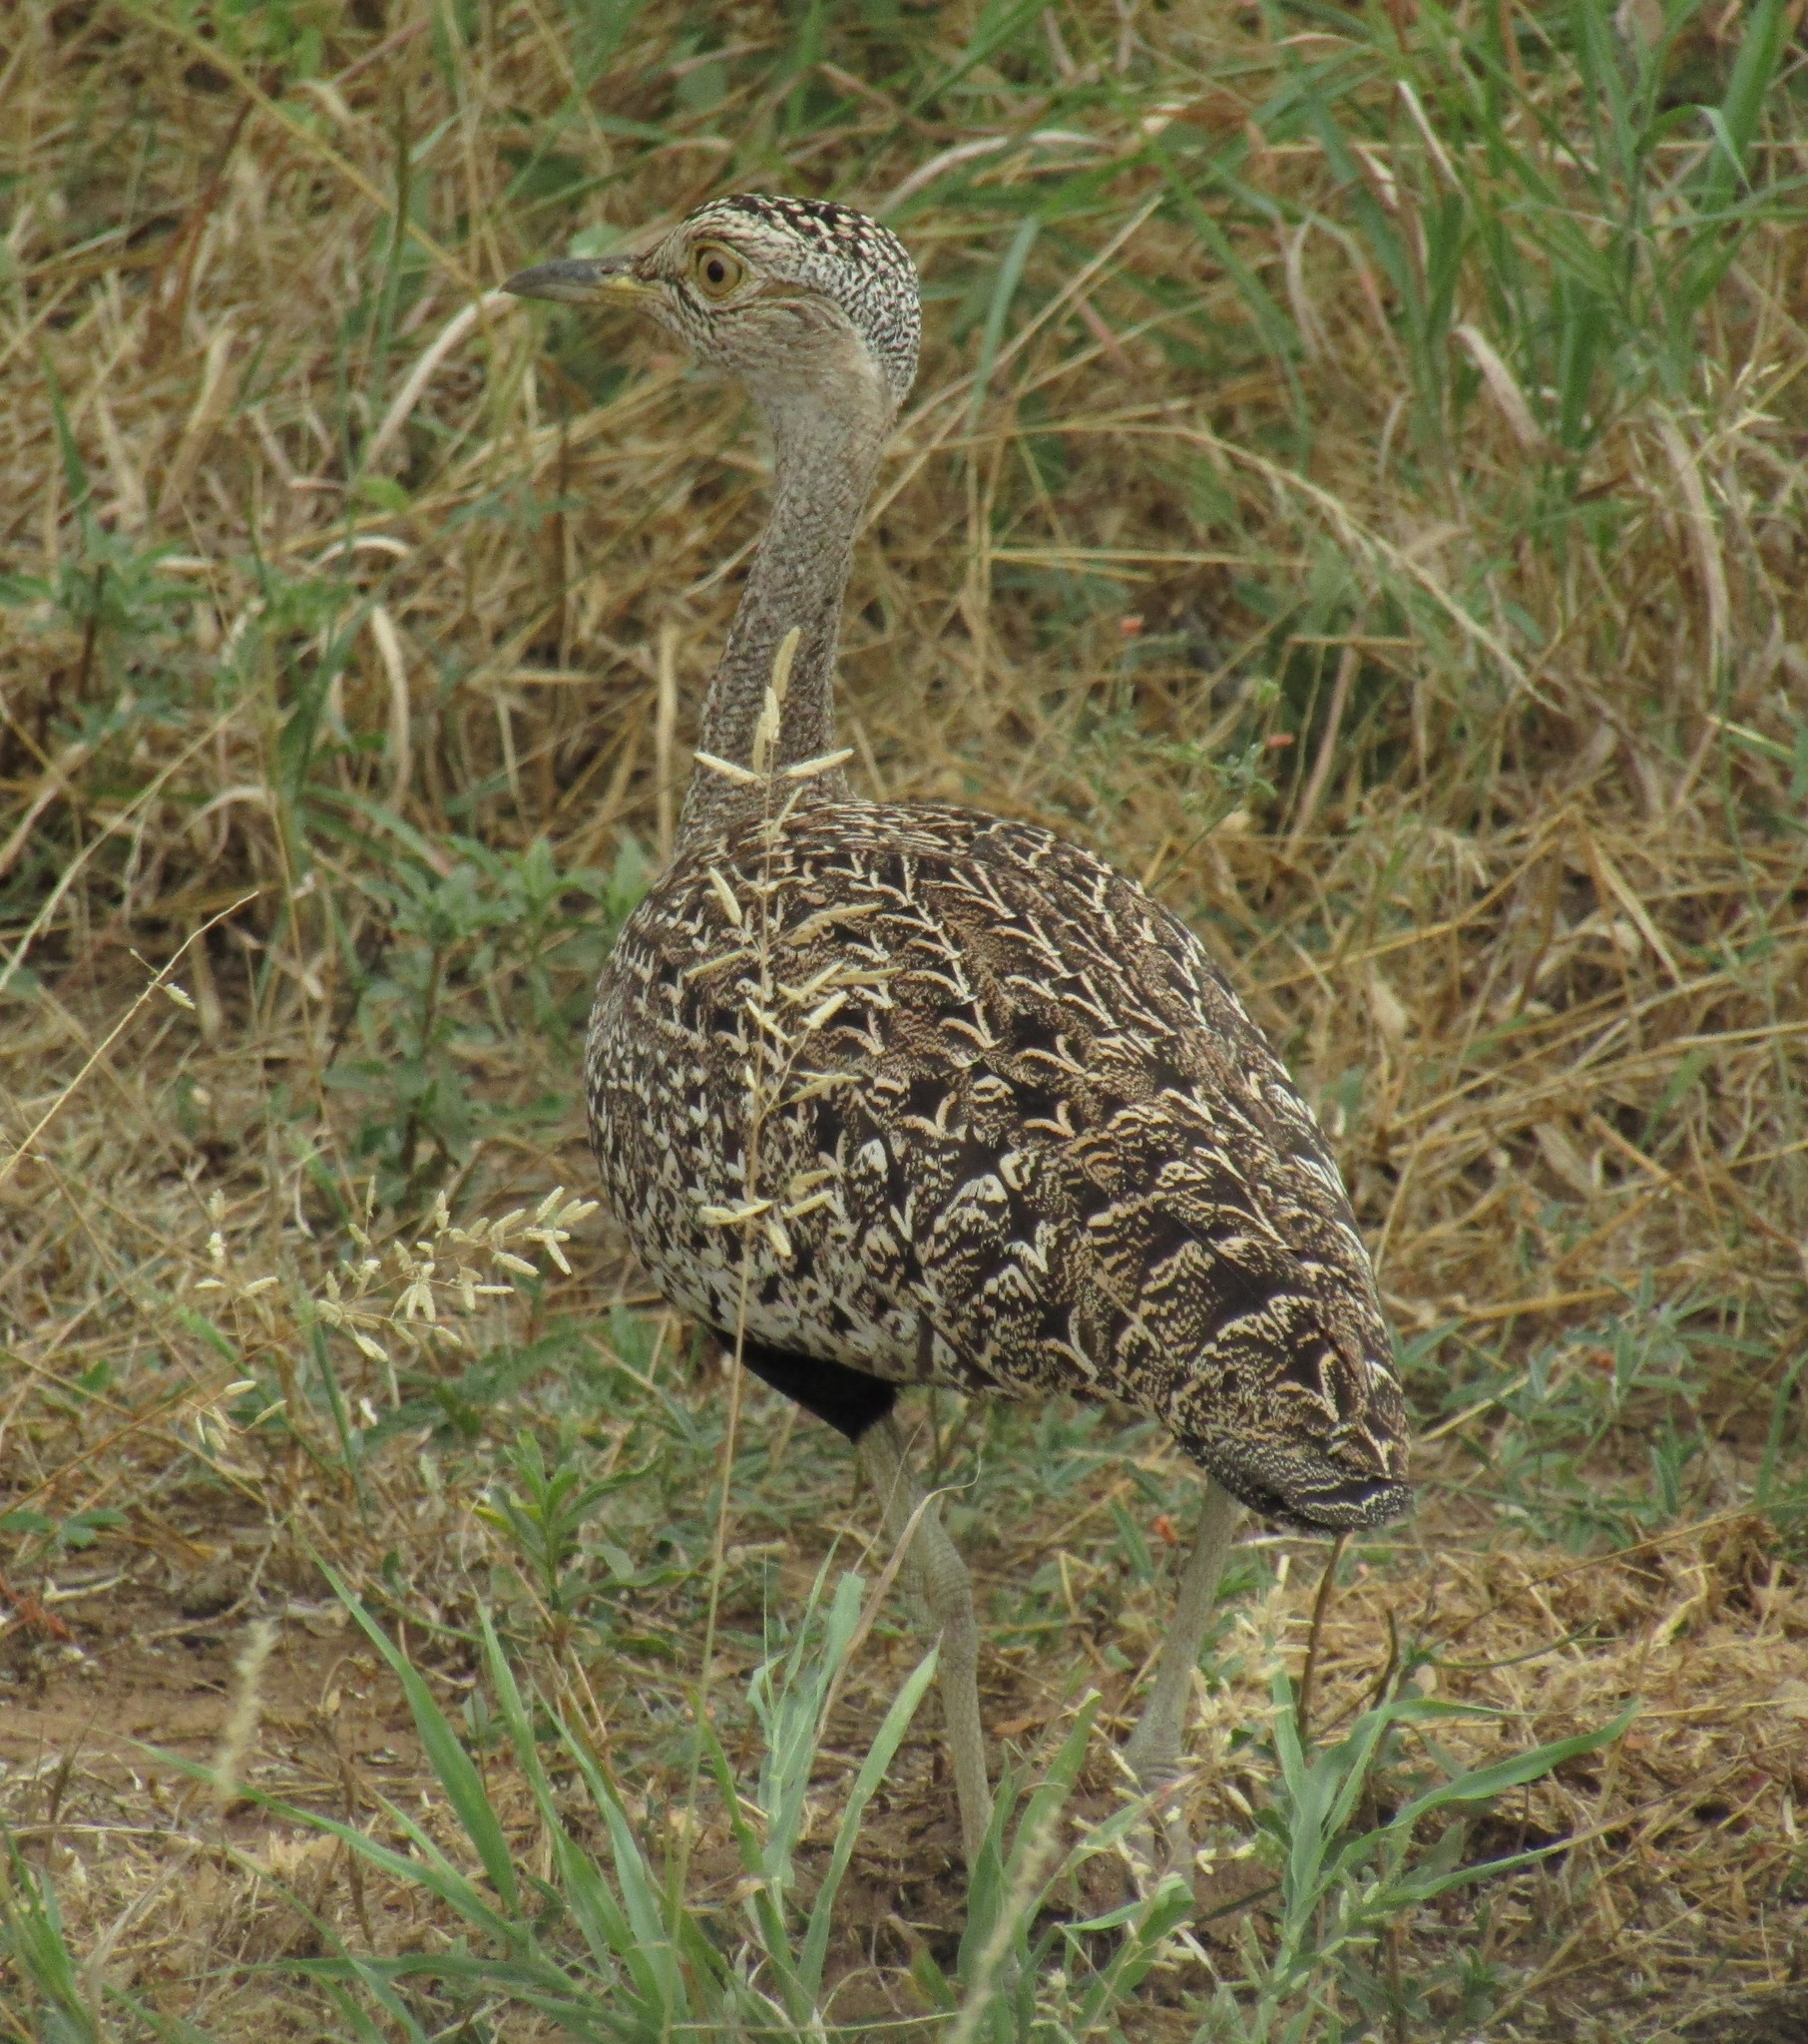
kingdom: Animalia
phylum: Chordata
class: Aves
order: Otidiformes
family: Otididae
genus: Lophotis
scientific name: Lophotis ruficrista
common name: Red-crested korhaan
